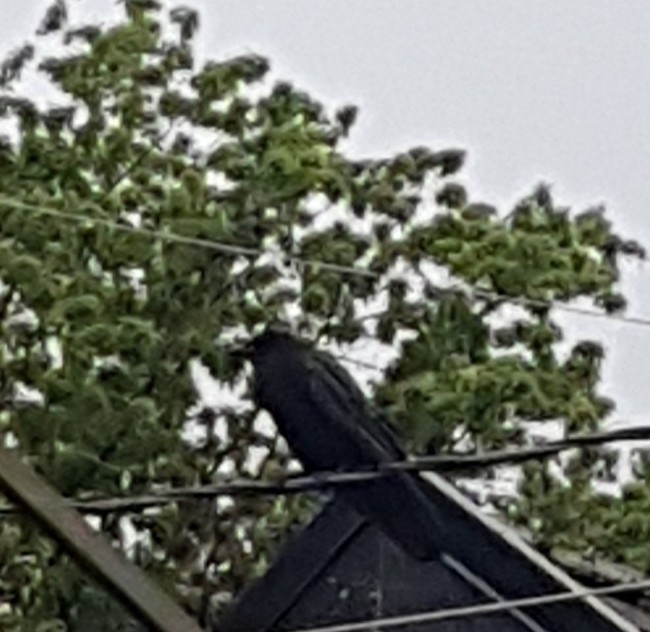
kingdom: Animalia
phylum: Chordata
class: Aves
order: Passeriformes
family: Corvidae
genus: Corvus
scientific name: Corvus brachyrhynchos
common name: American crow
